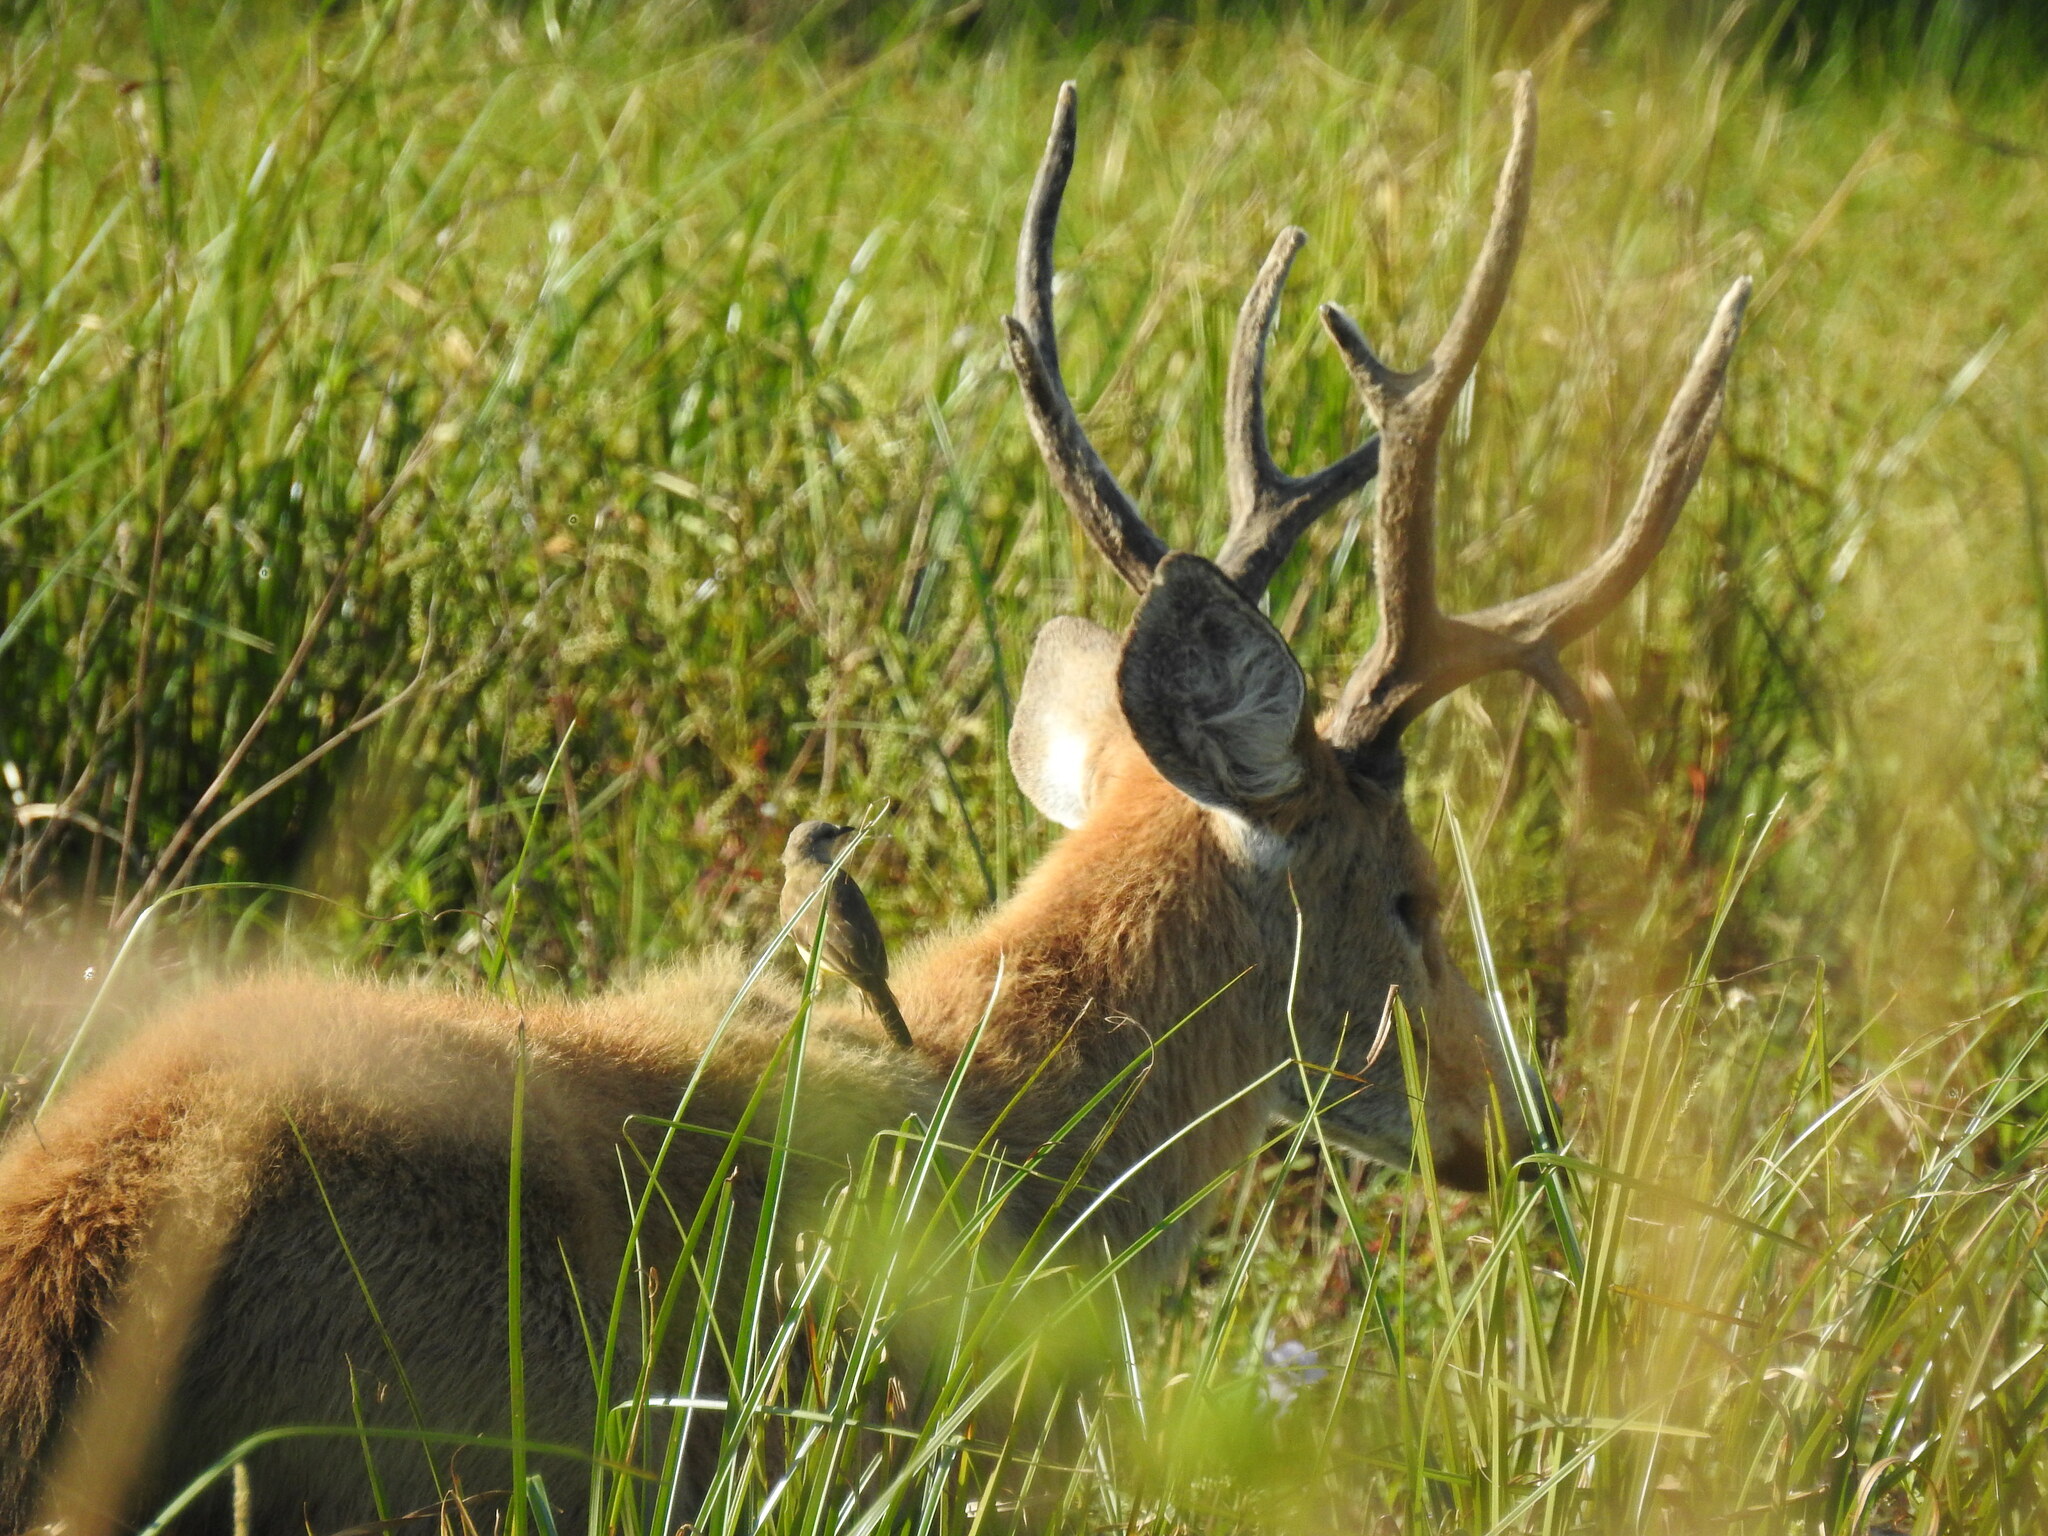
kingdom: Animalia
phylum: Chordata
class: Mammalia
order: Artiodactyla
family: Cervidae
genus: Blastocerus
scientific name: Blastocerus dichotomus
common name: Marsh deer
